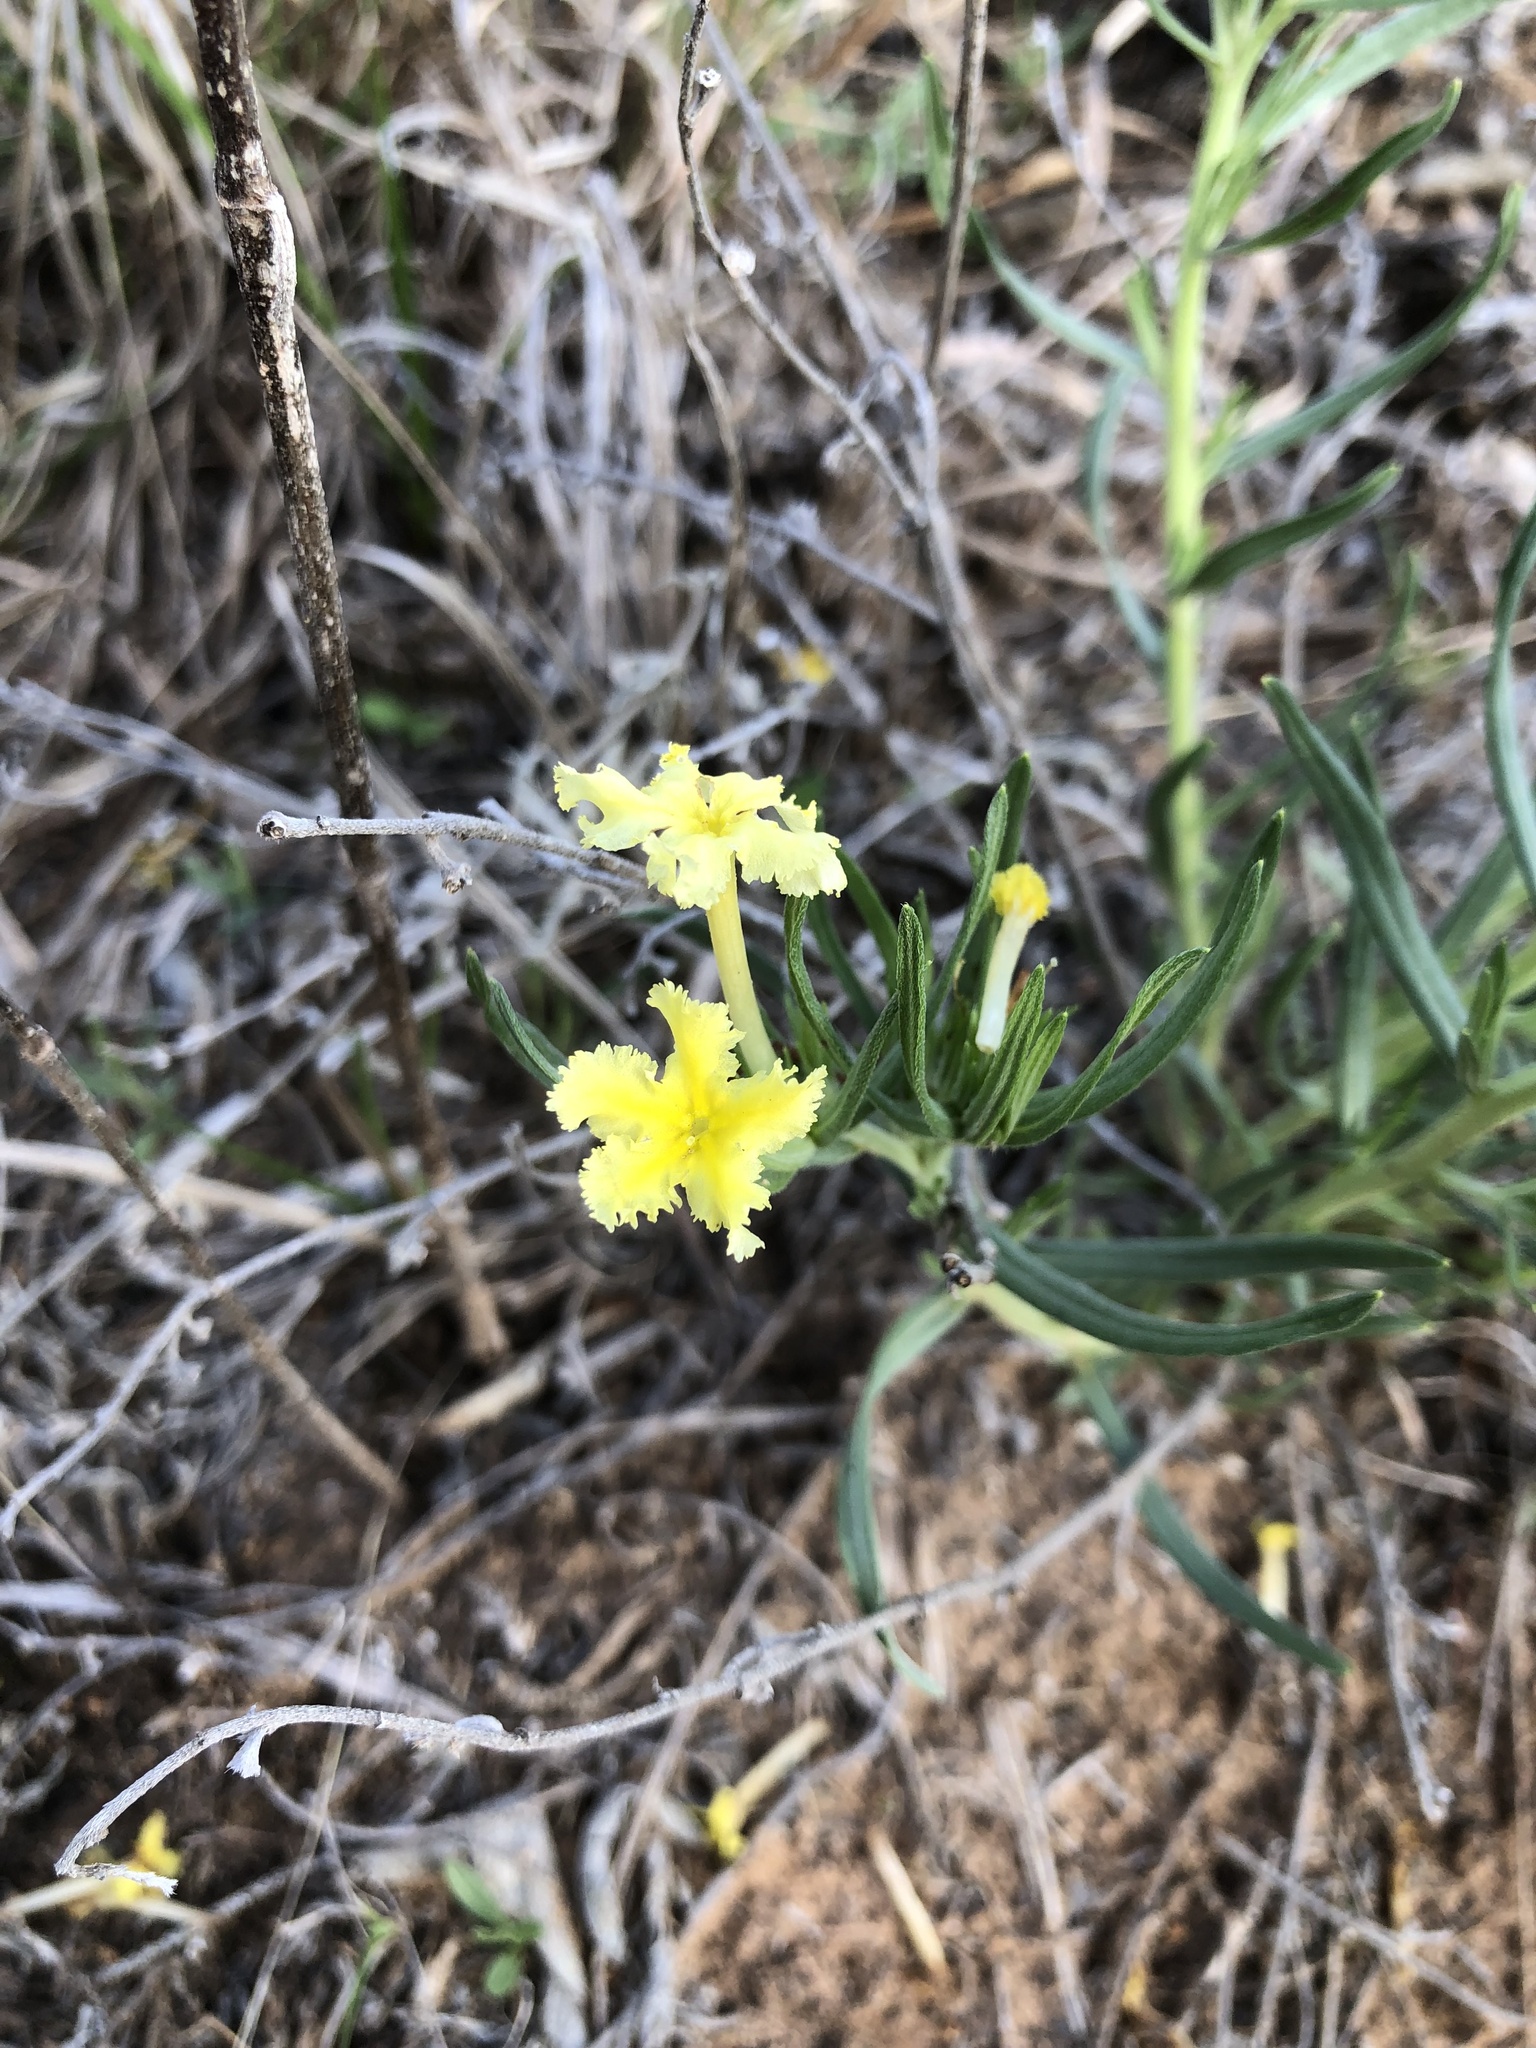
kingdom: Plantae
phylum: Tracheophyta
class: Magnoliopsida
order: Boraginales
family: Boraginaceae
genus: Lithospermum
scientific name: Lithospermum incisum
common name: Fringed gromwell
